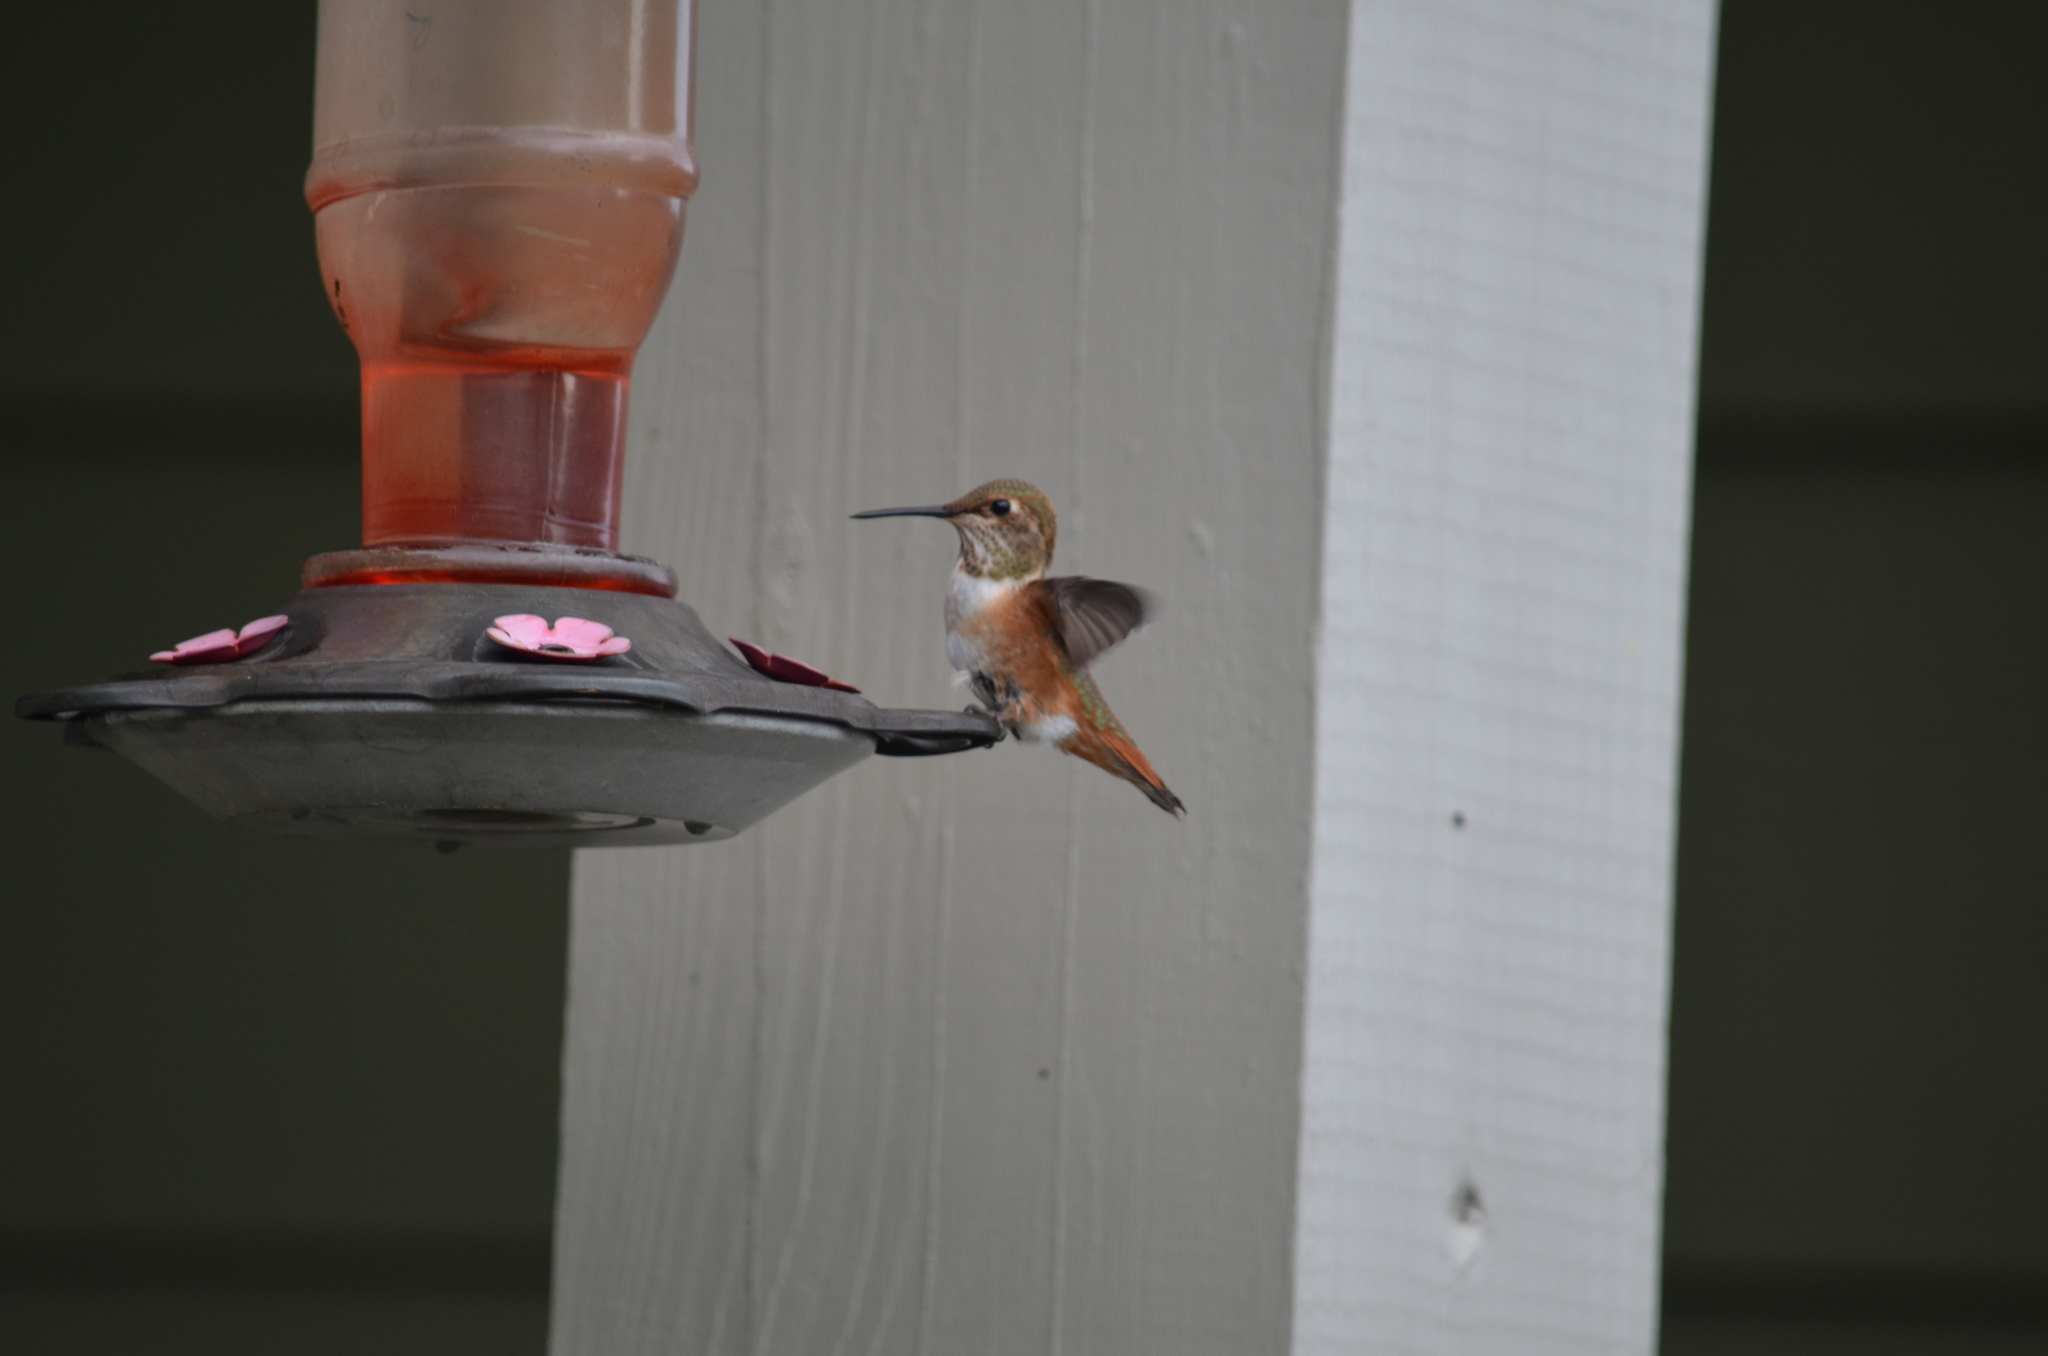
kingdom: Animalia
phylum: Chordata
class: Aves
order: Apodiformes
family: Trochilidae
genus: Selasphorus
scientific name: Selasphorus rufus
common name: Rufous hummingbird
